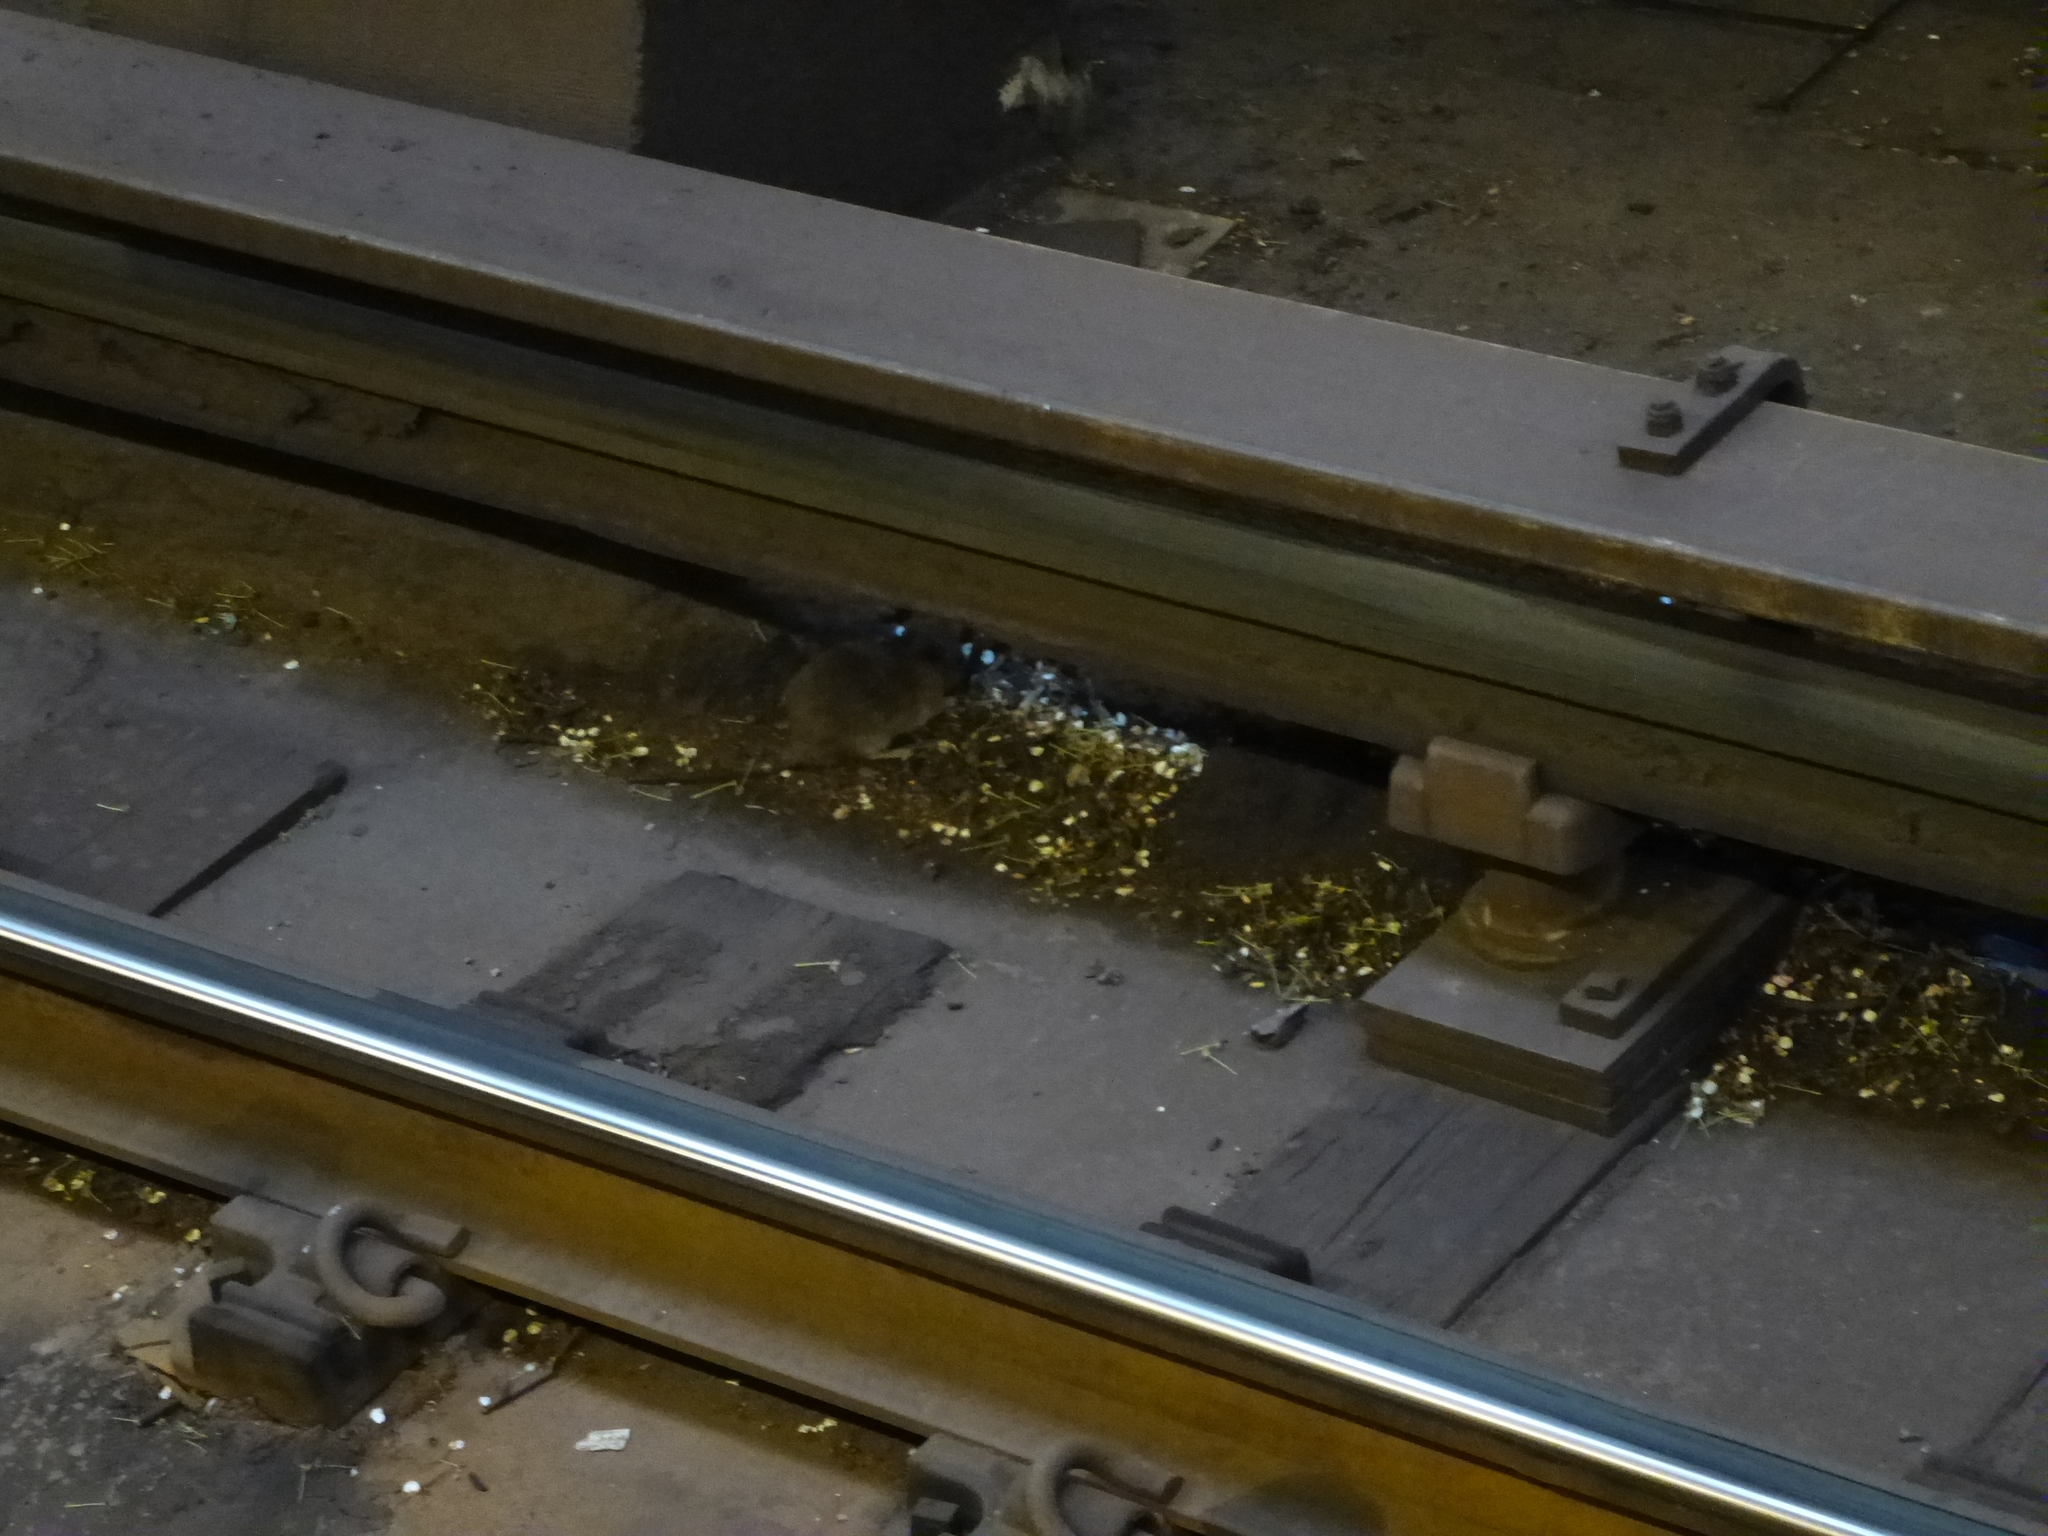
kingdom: Animalia
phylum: Chordata
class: Mammalia
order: Rodentia
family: Muridae
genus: Rattus
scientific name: Rattus norvegicus
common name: Brown rat
